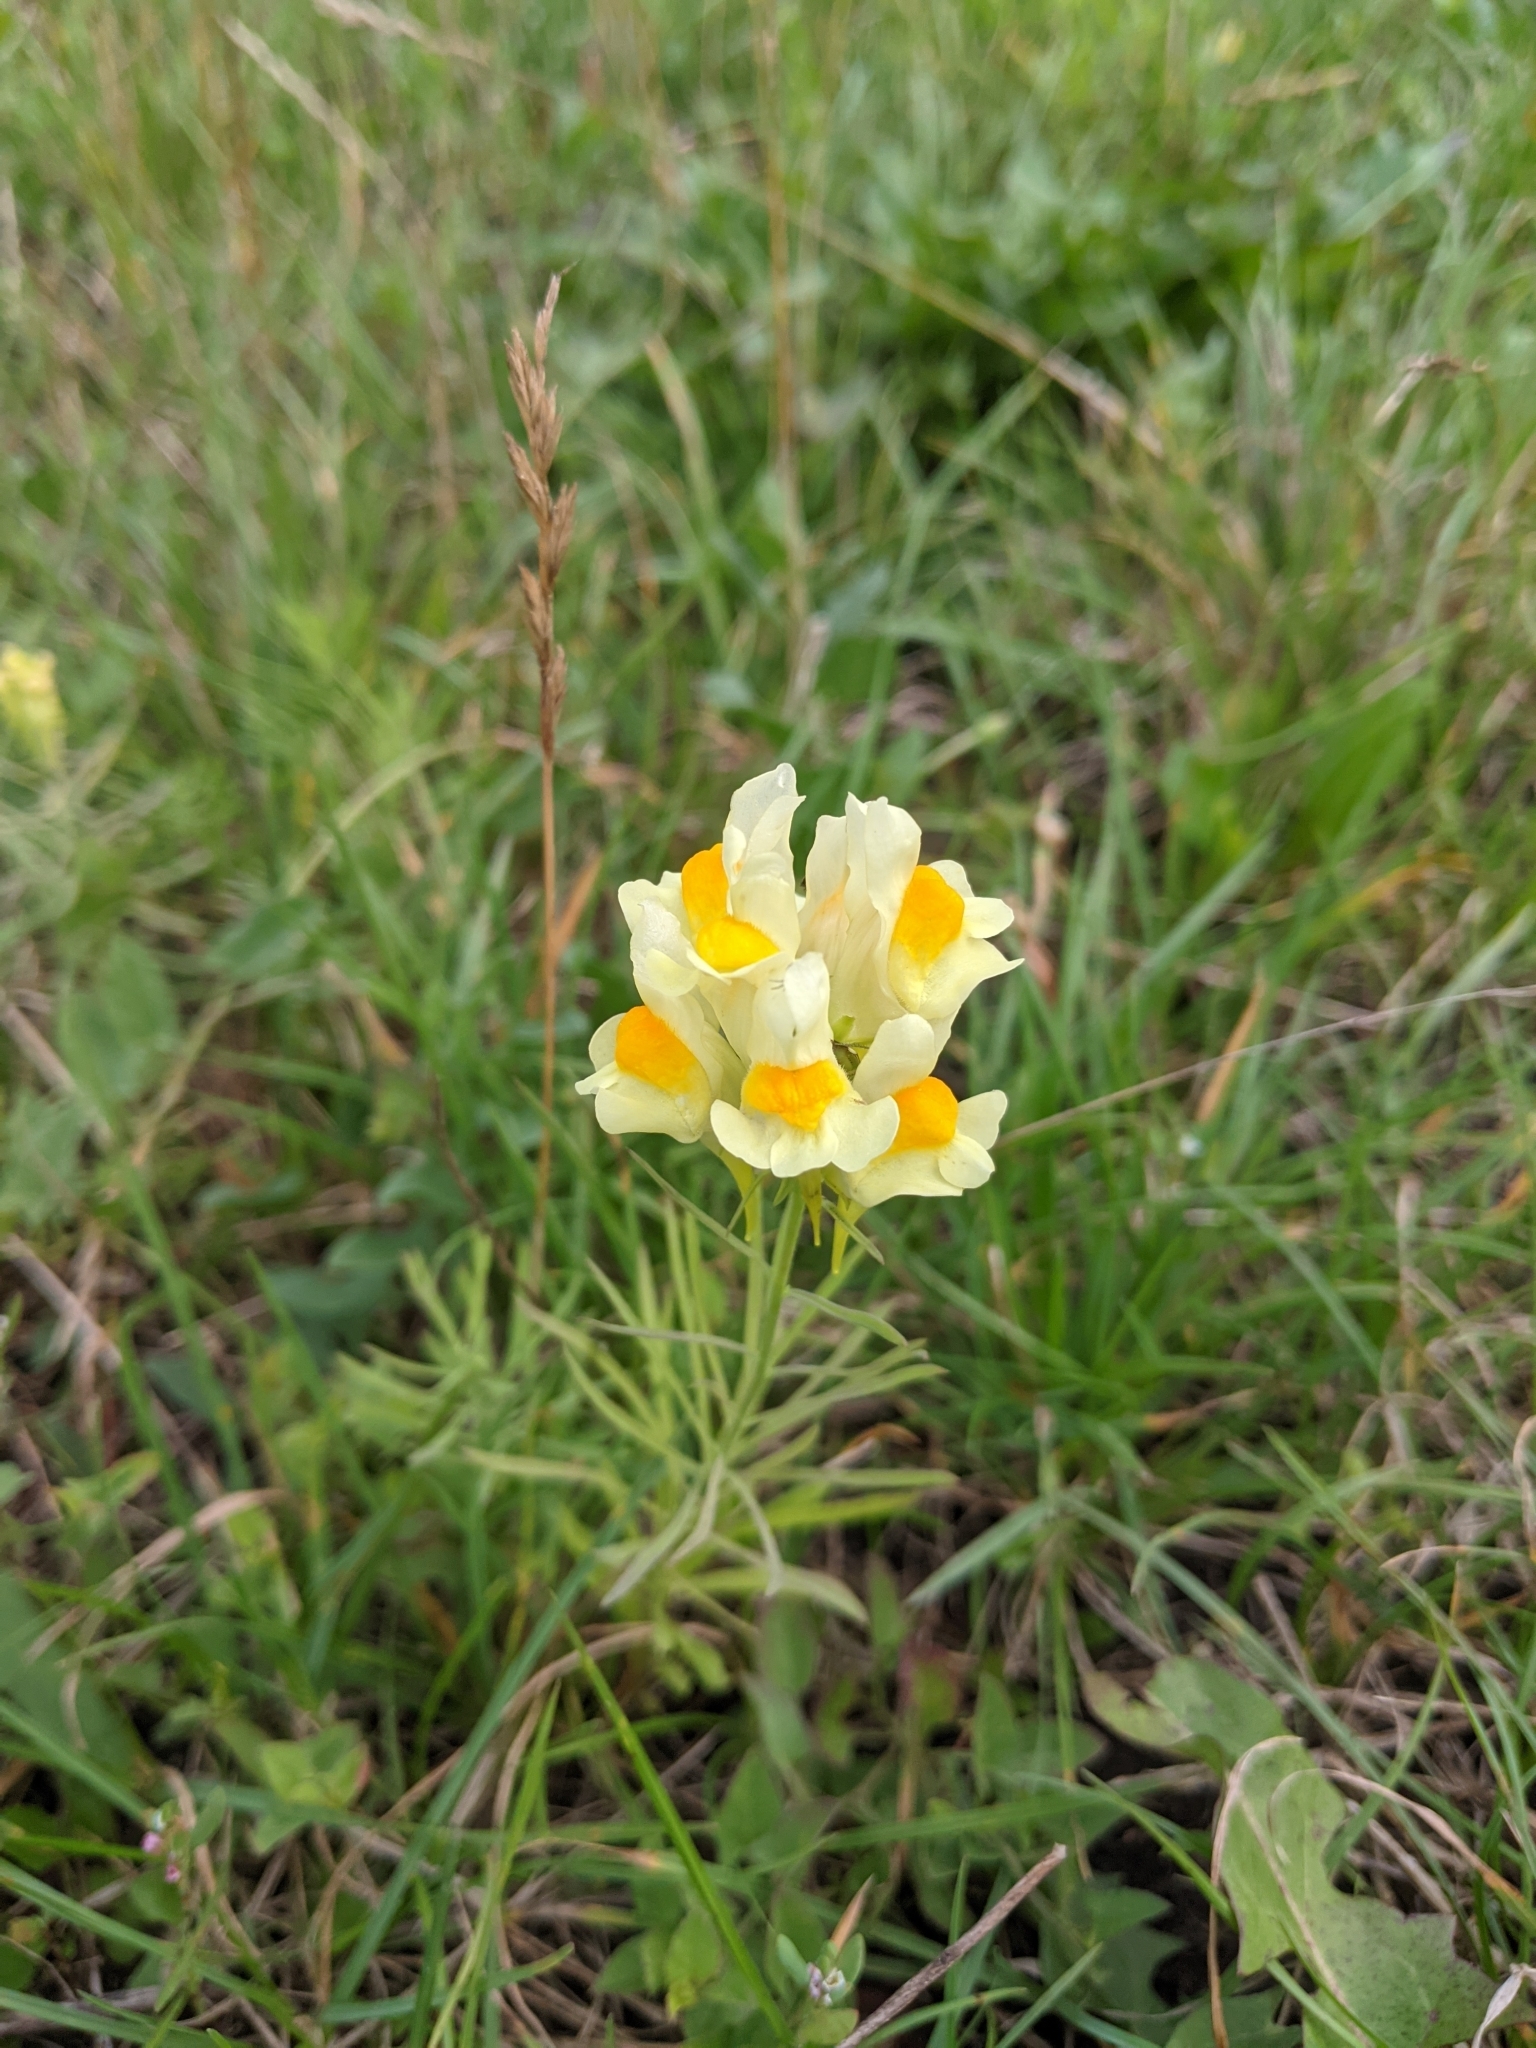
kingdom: Plantae
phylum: Tracheophyta
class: Magnoliopsida
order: Lamiales
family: Plantaginaceae
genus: Linaria
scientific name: Linaria vulgaris
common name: Butter and eggs
